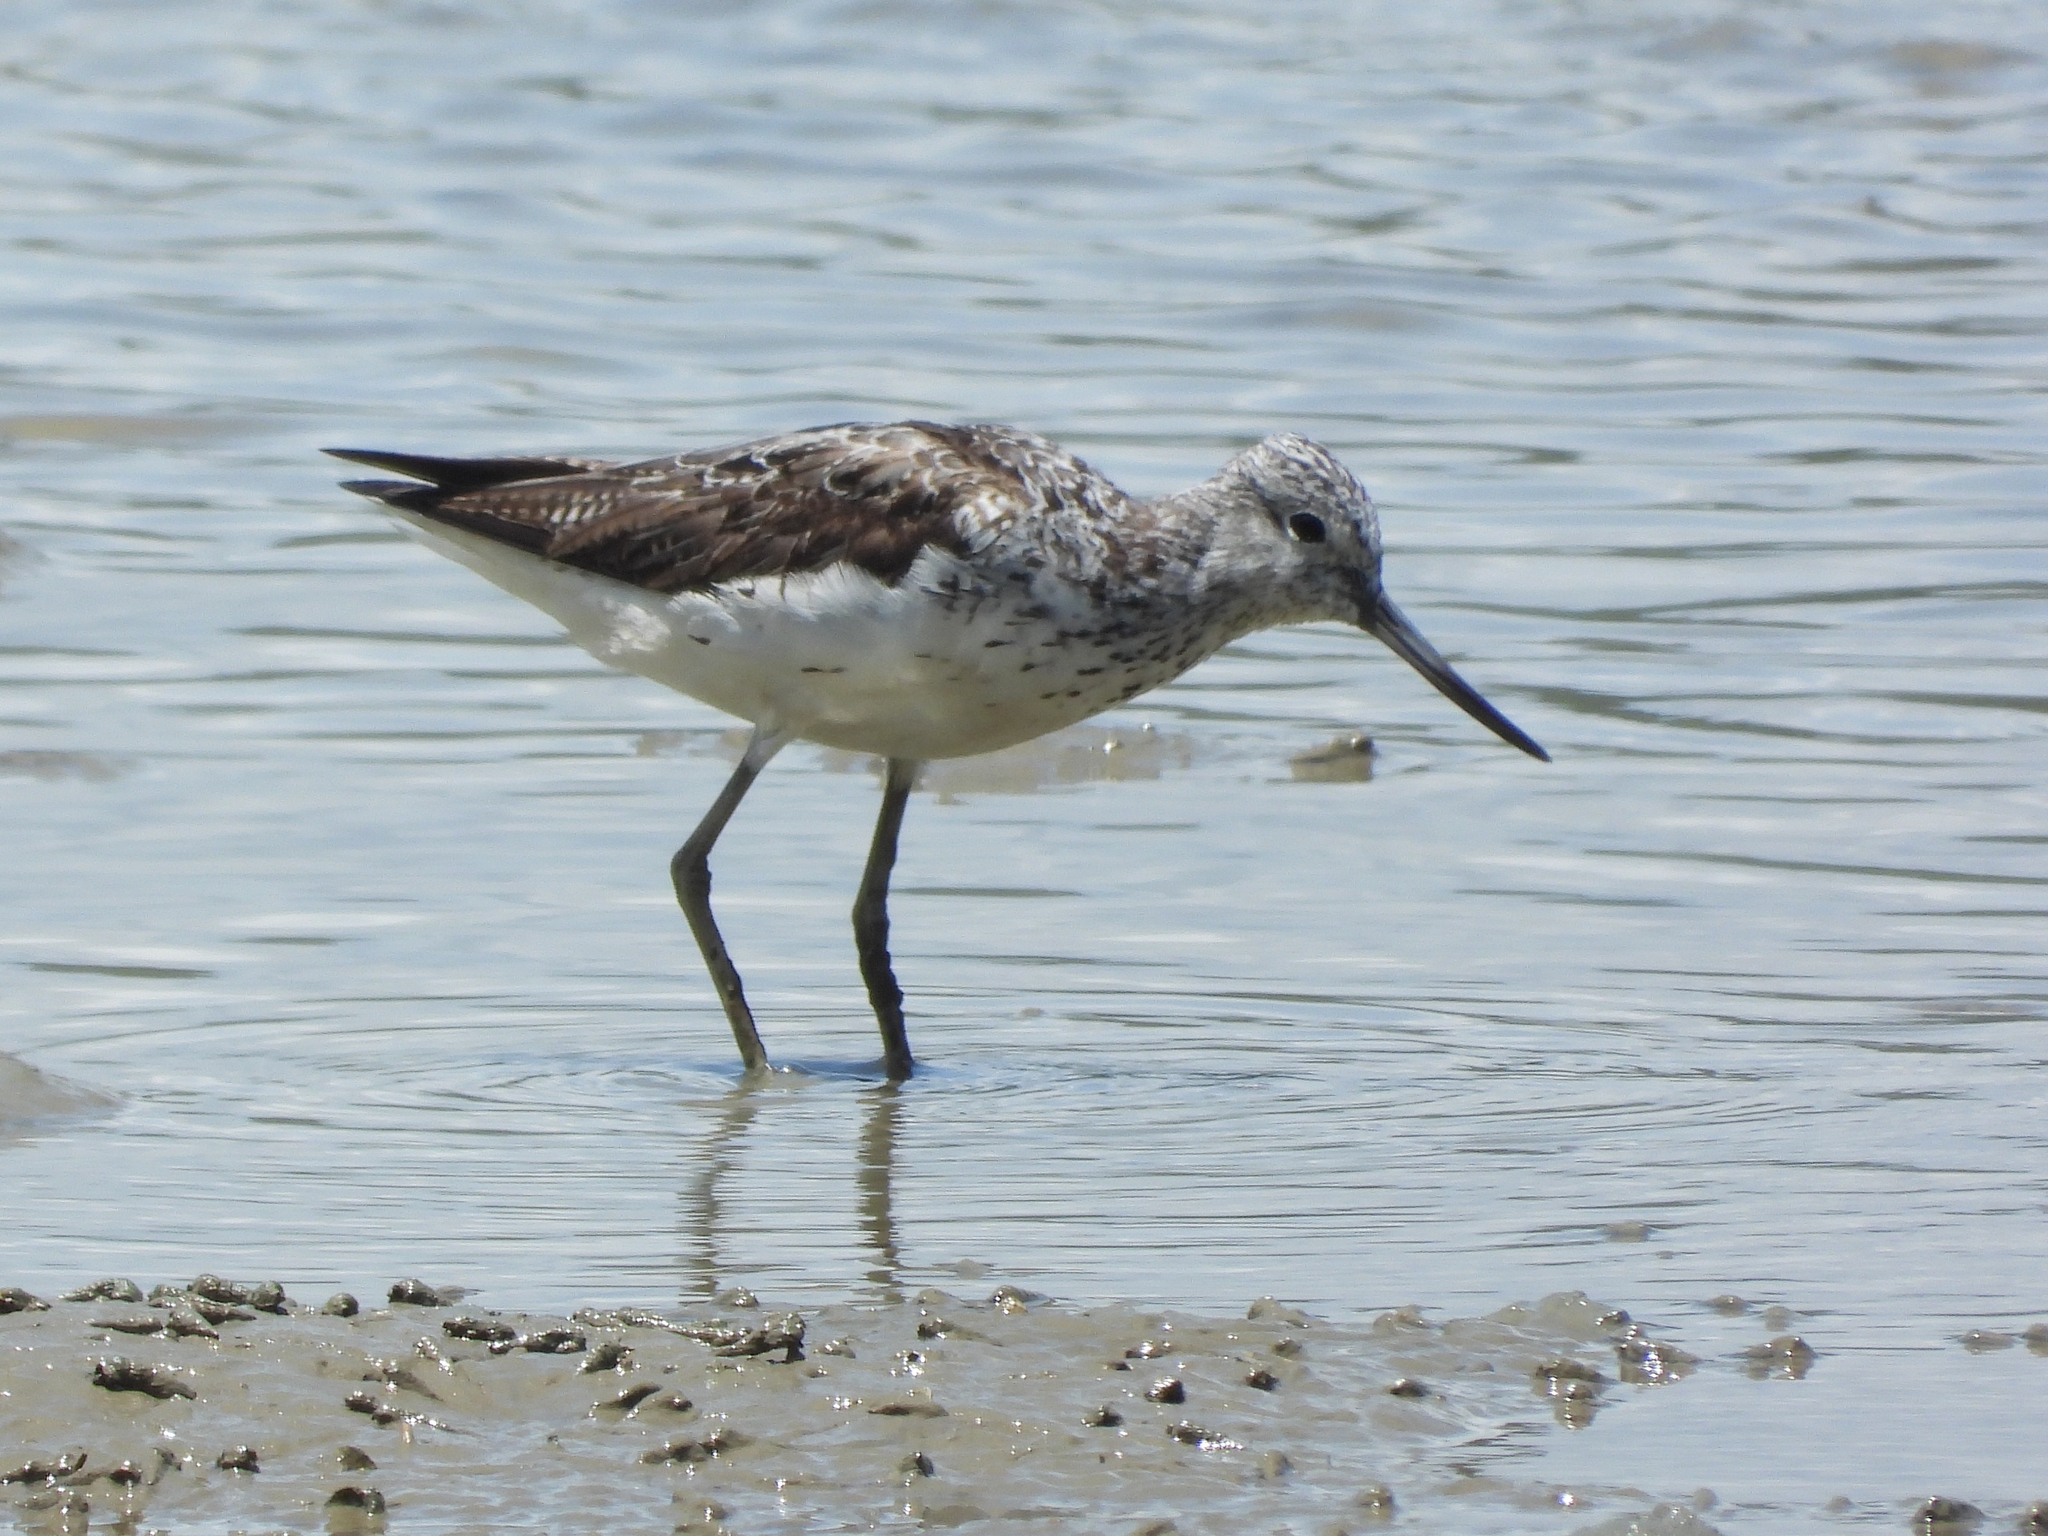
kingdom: Animalia
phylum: Chordata
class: Aves
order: Charadriiformes
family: Scolopacidae
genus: Tringa
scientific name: Tringa nebularia
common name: Common greenshank
